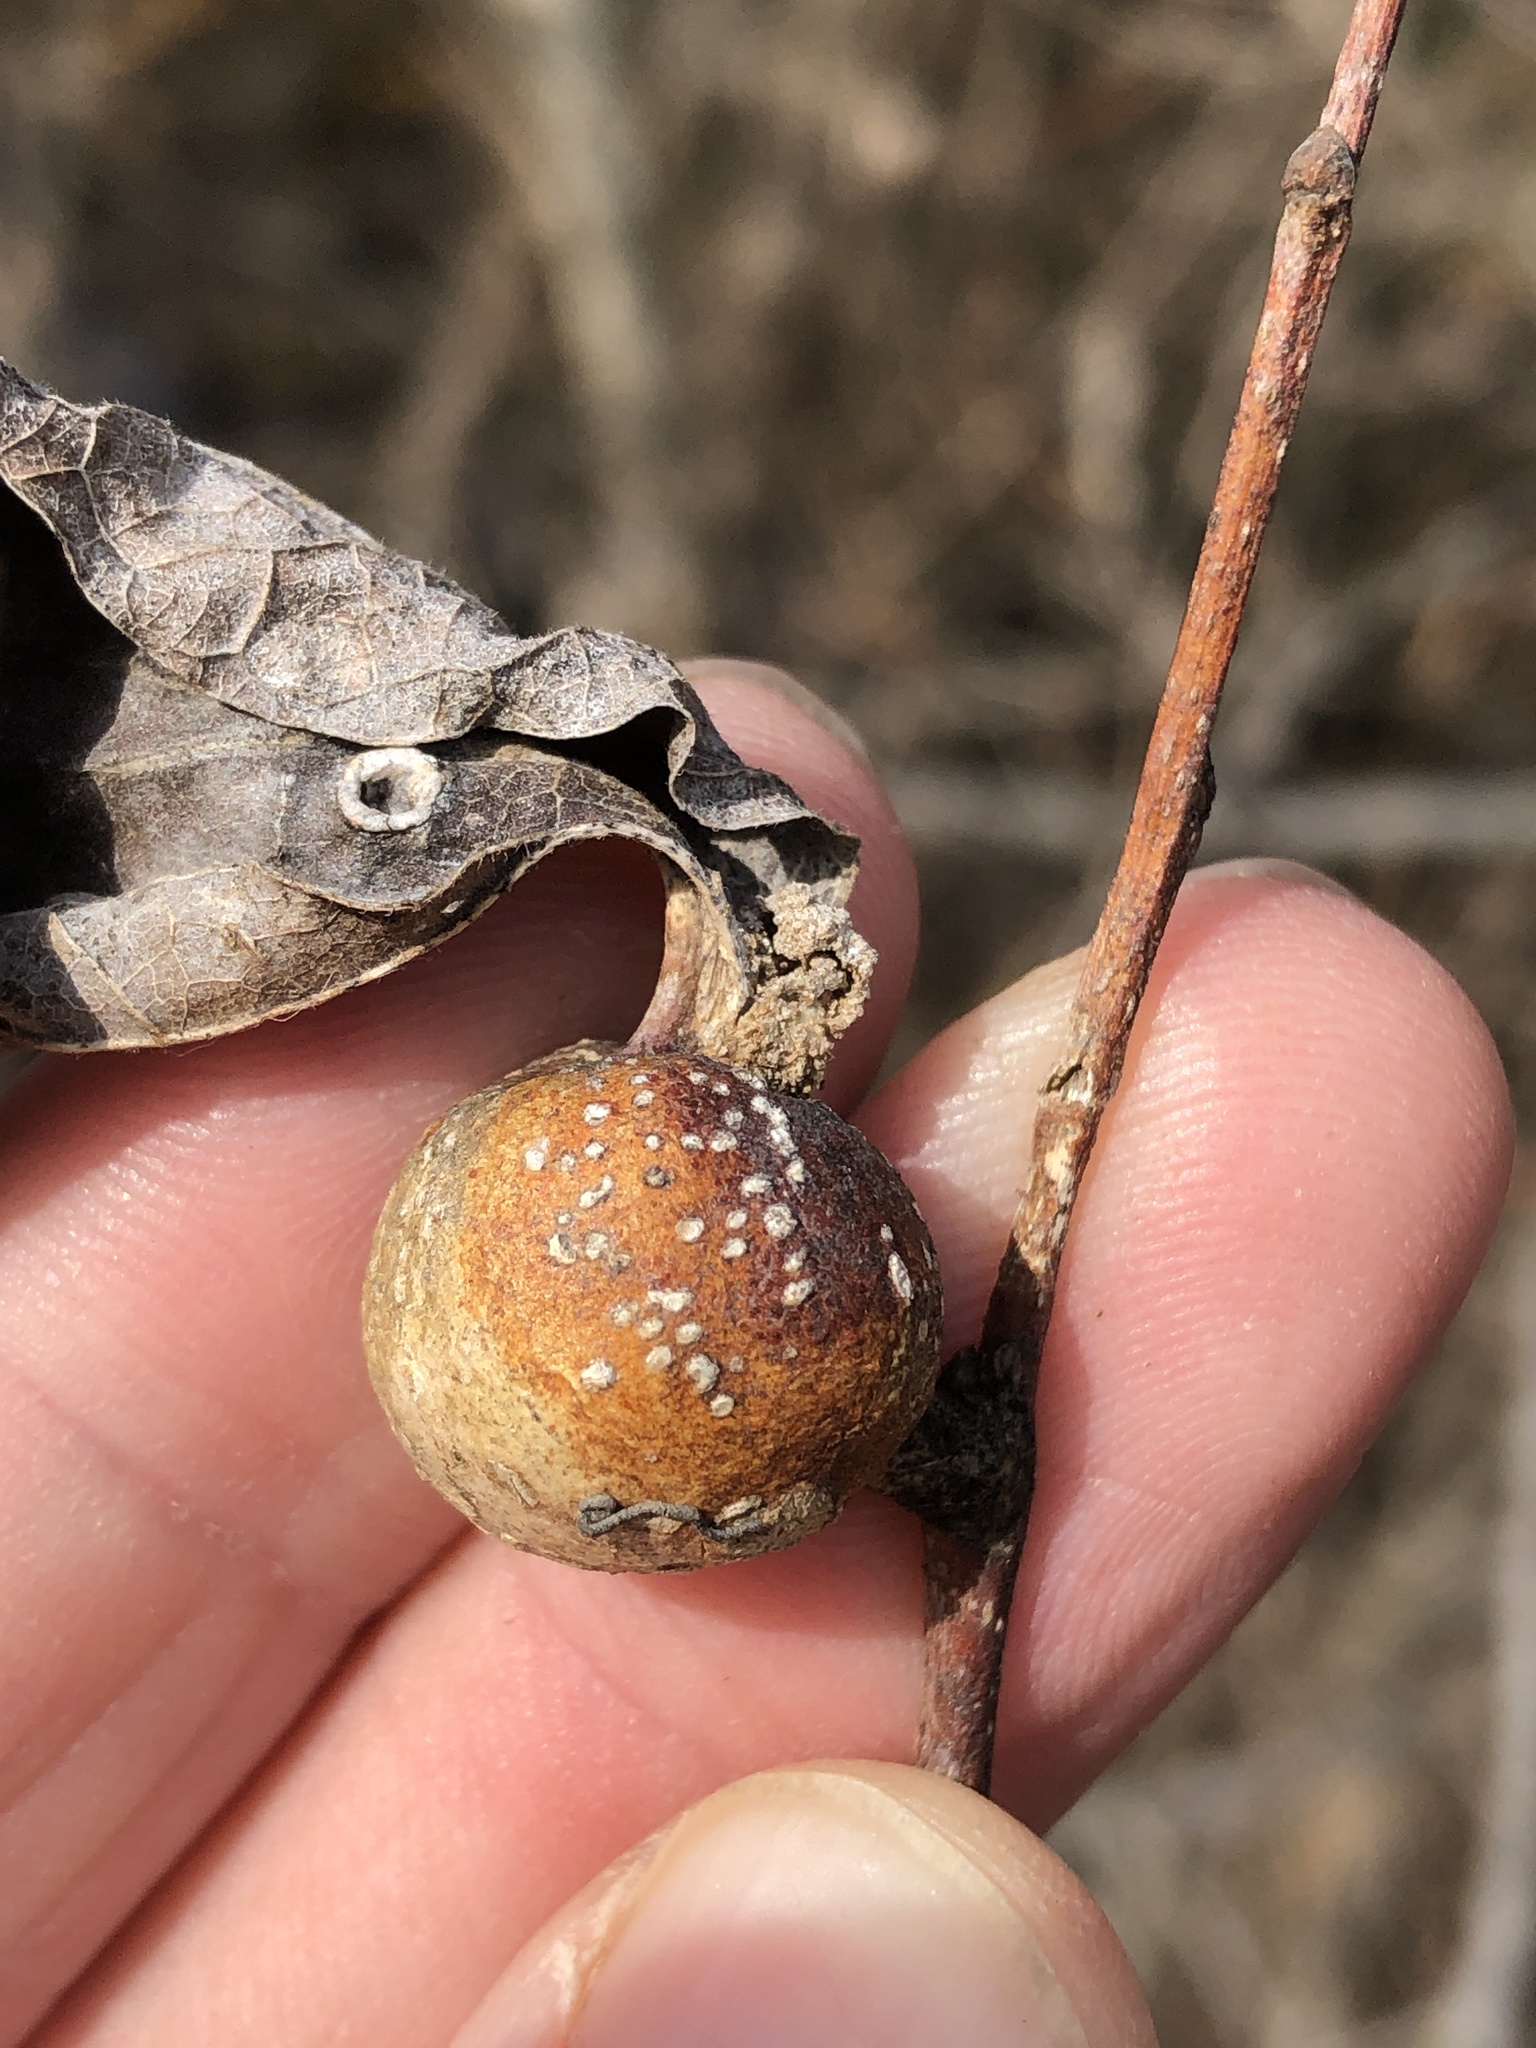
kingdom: Animalia
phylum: Arthropoda
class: Insecta
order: Hemiptera
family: Aphalaridae
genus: Pachypsylla
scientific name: Pachypsylla venusta
